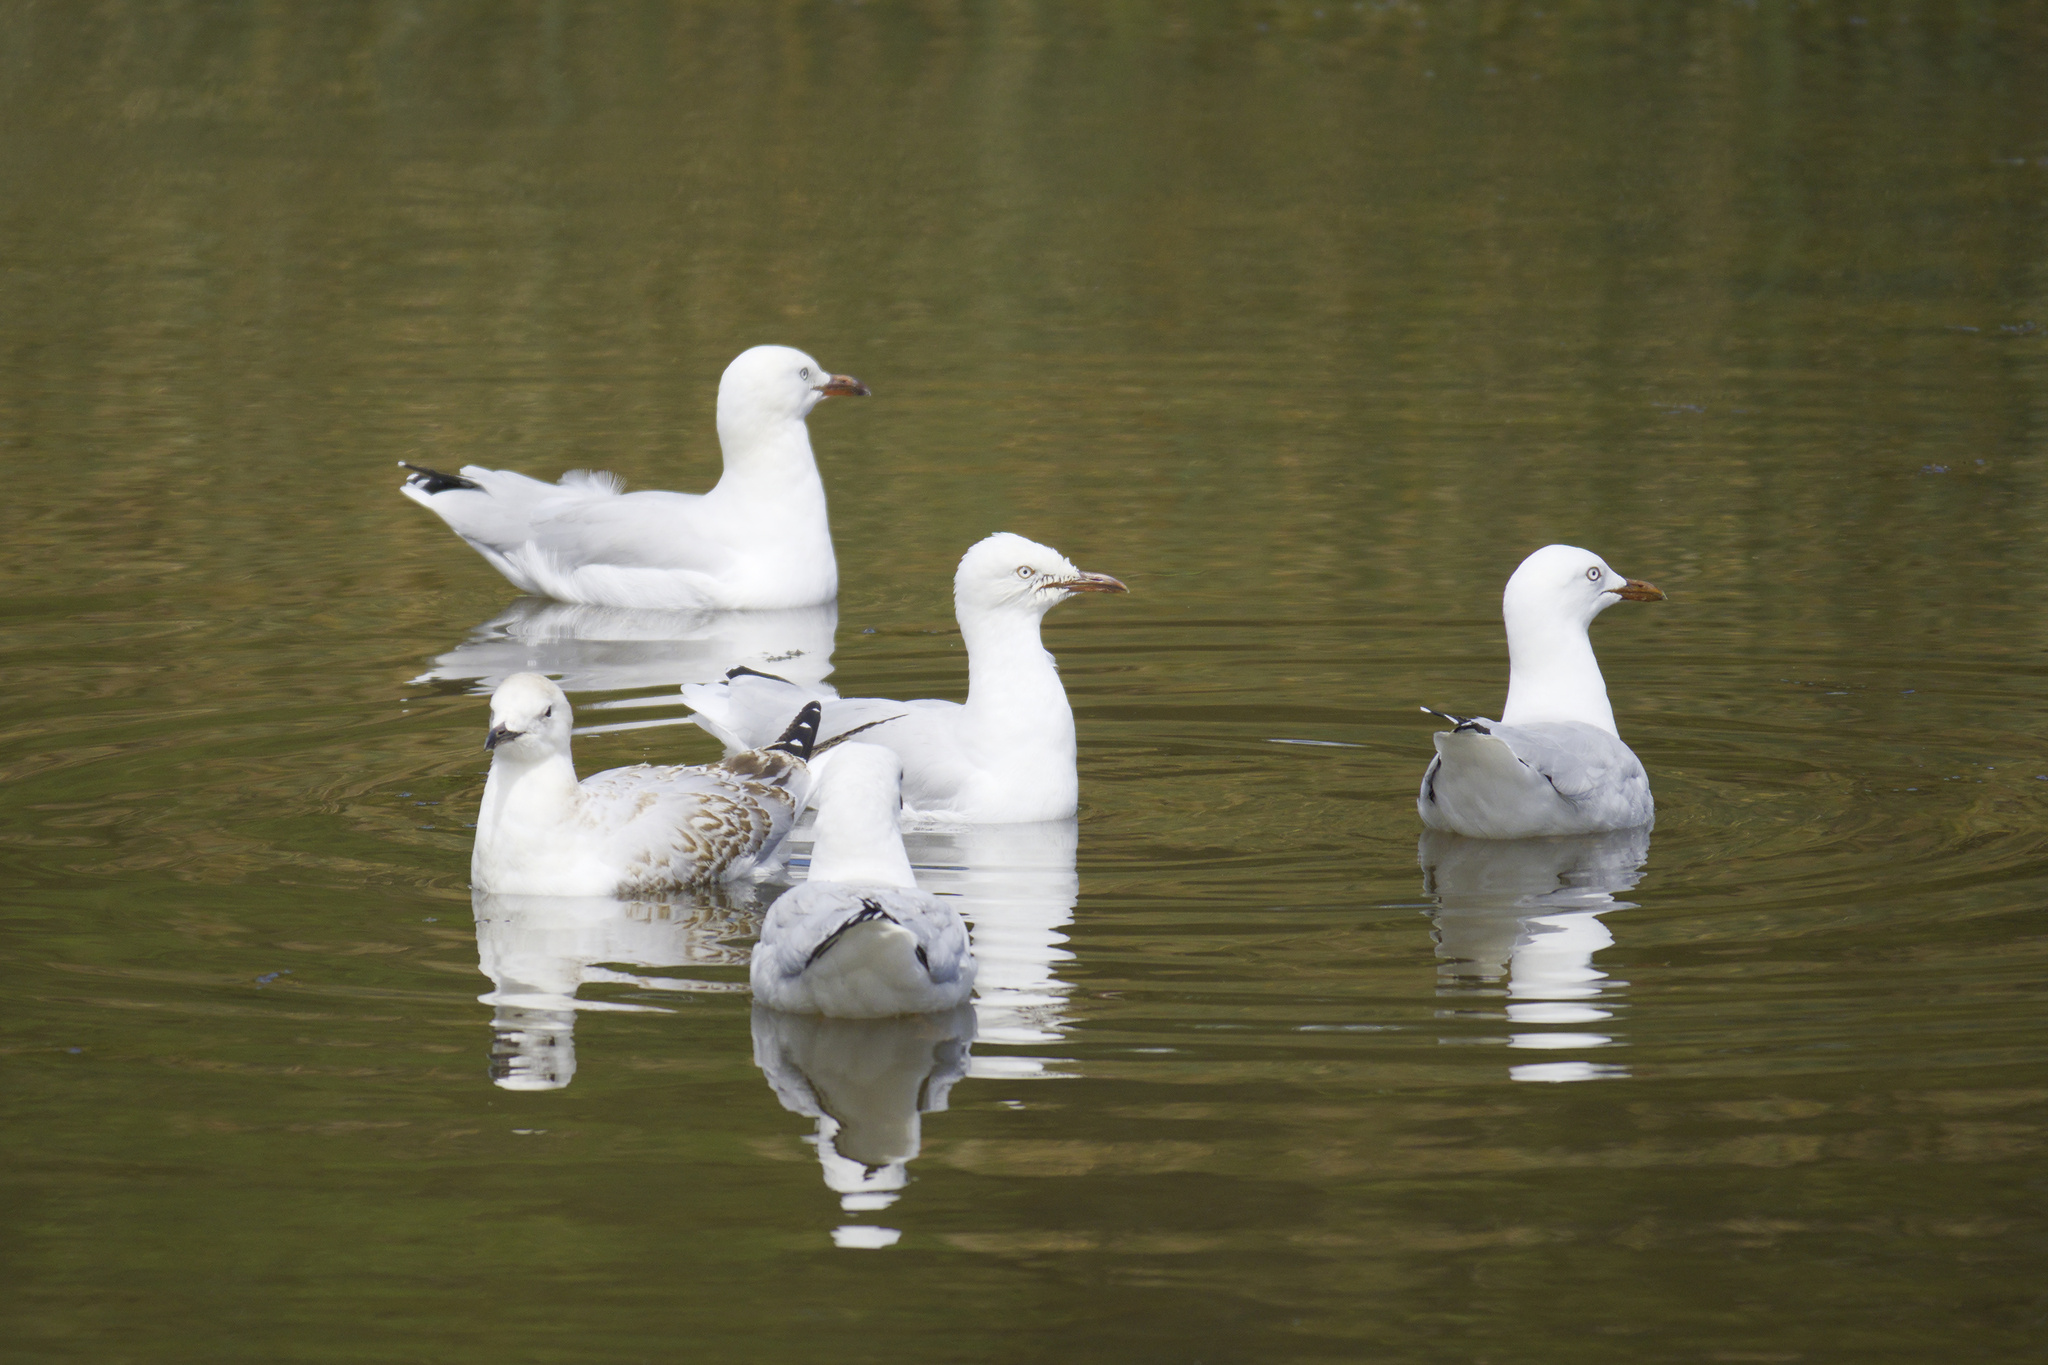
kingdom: Animalia
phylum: Chordata
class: Aves
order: Charadriiformes
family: Laridae
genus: Chroicocephalus
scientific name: Chroicocephalus novaehollandiae
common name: Silver gull
